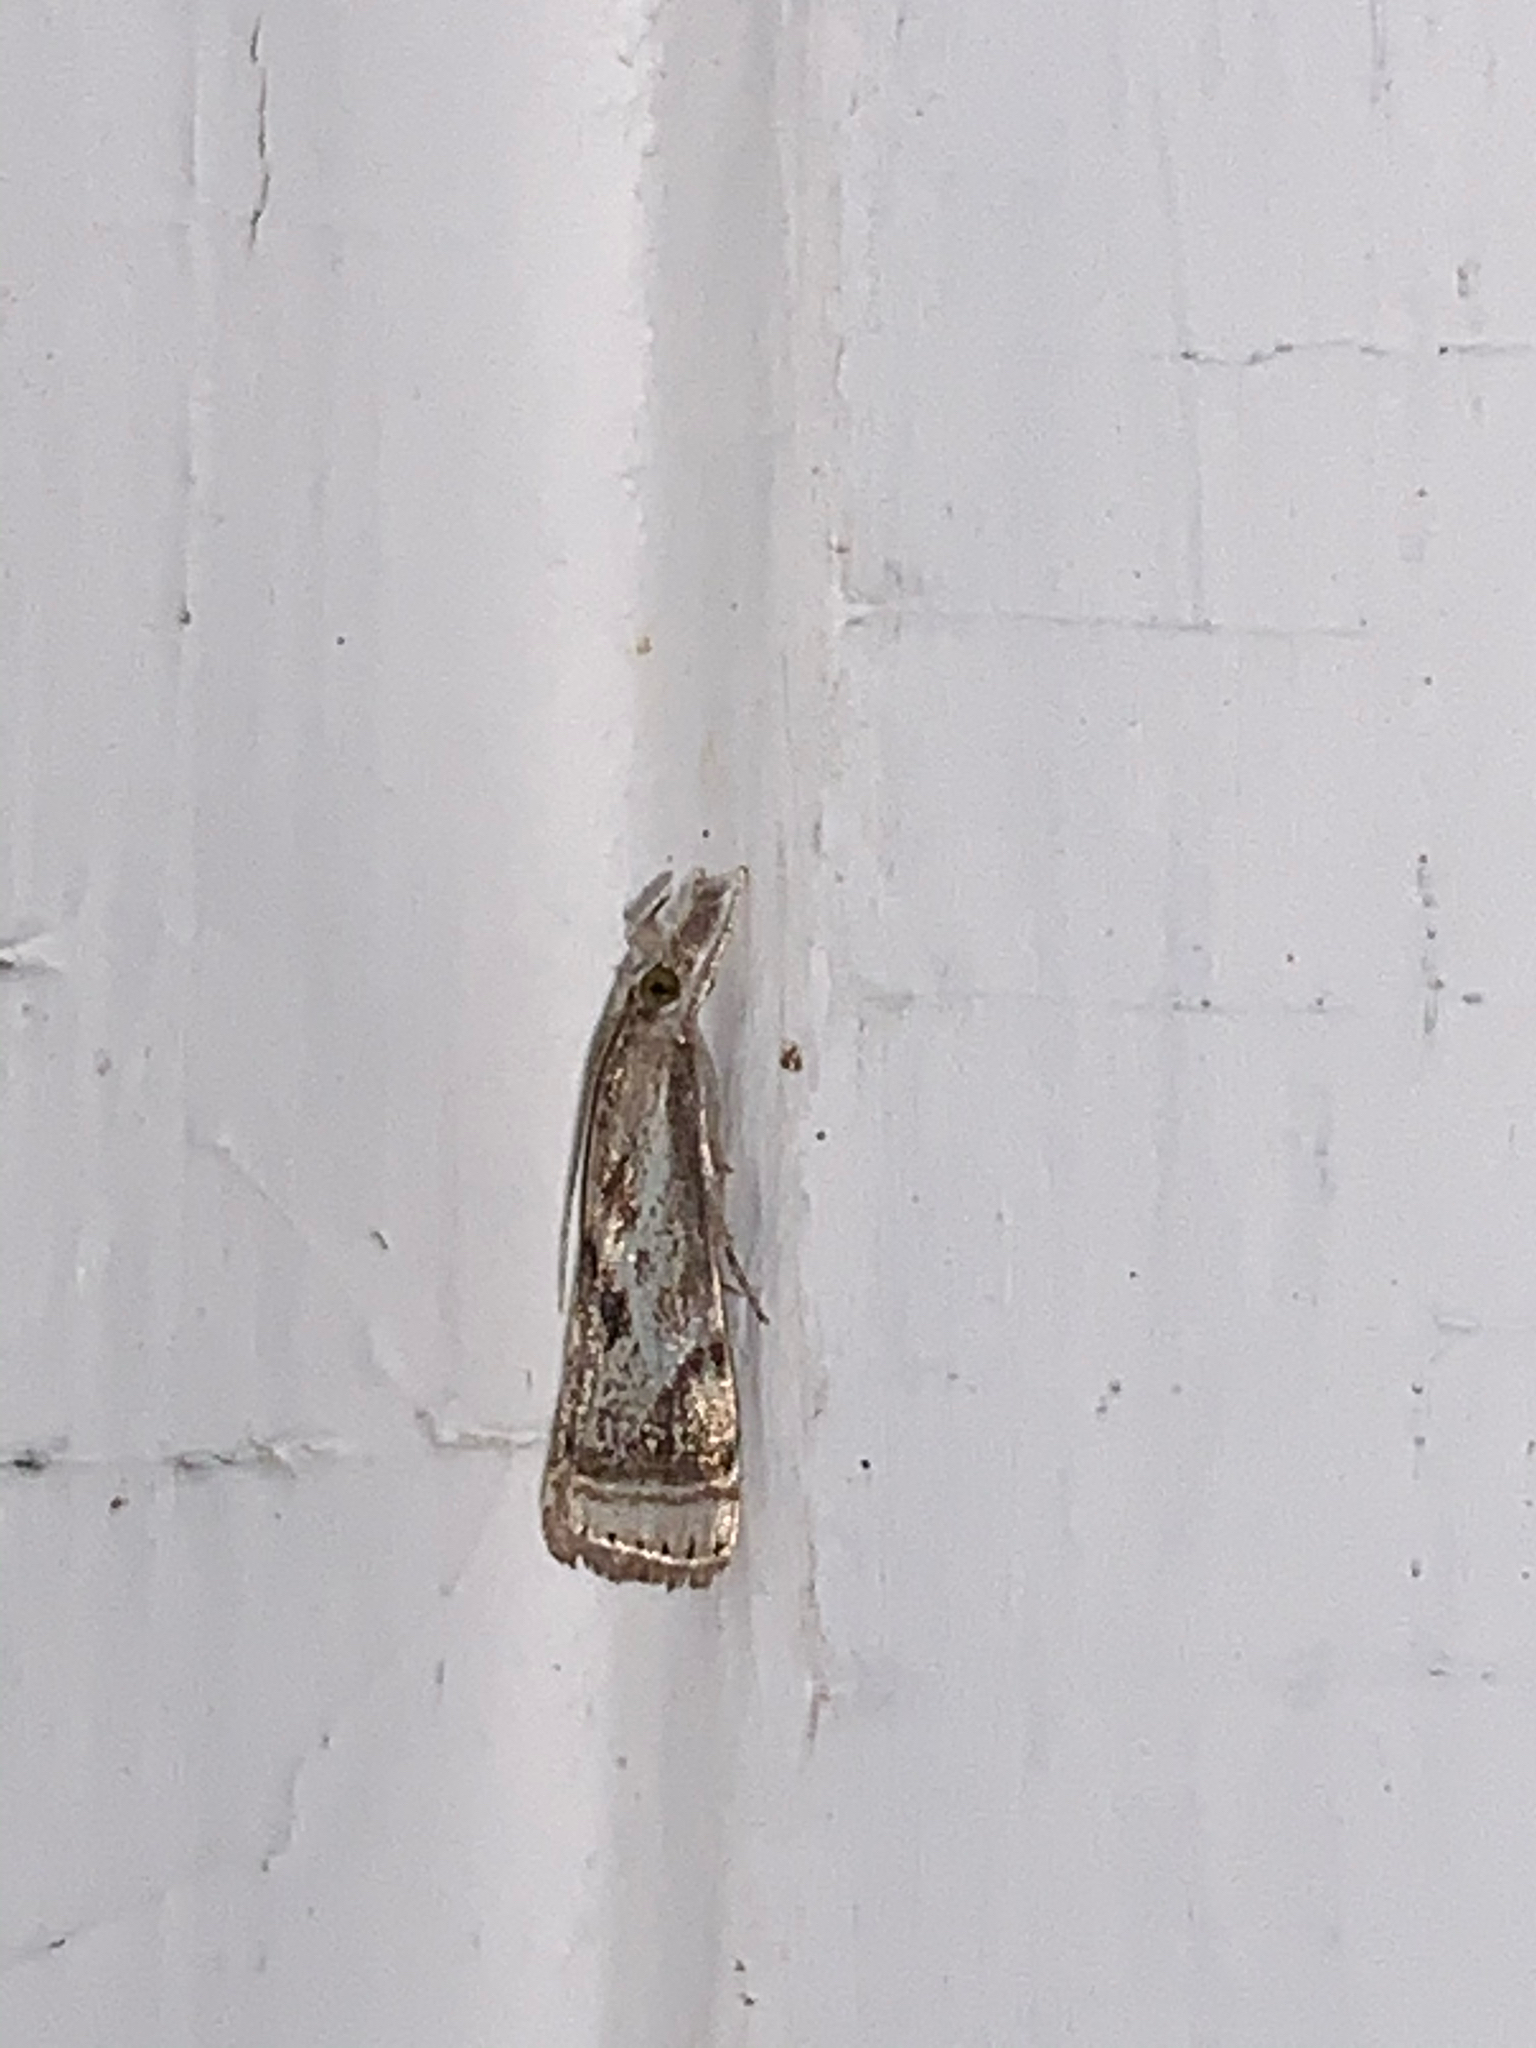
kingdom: Animalia
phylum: Arthropoda
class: Insecta
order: Lepidoptera
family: Crambidae
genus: Microcrambus
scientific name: Microcrambus elegans
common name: Elegant grass-veneer
